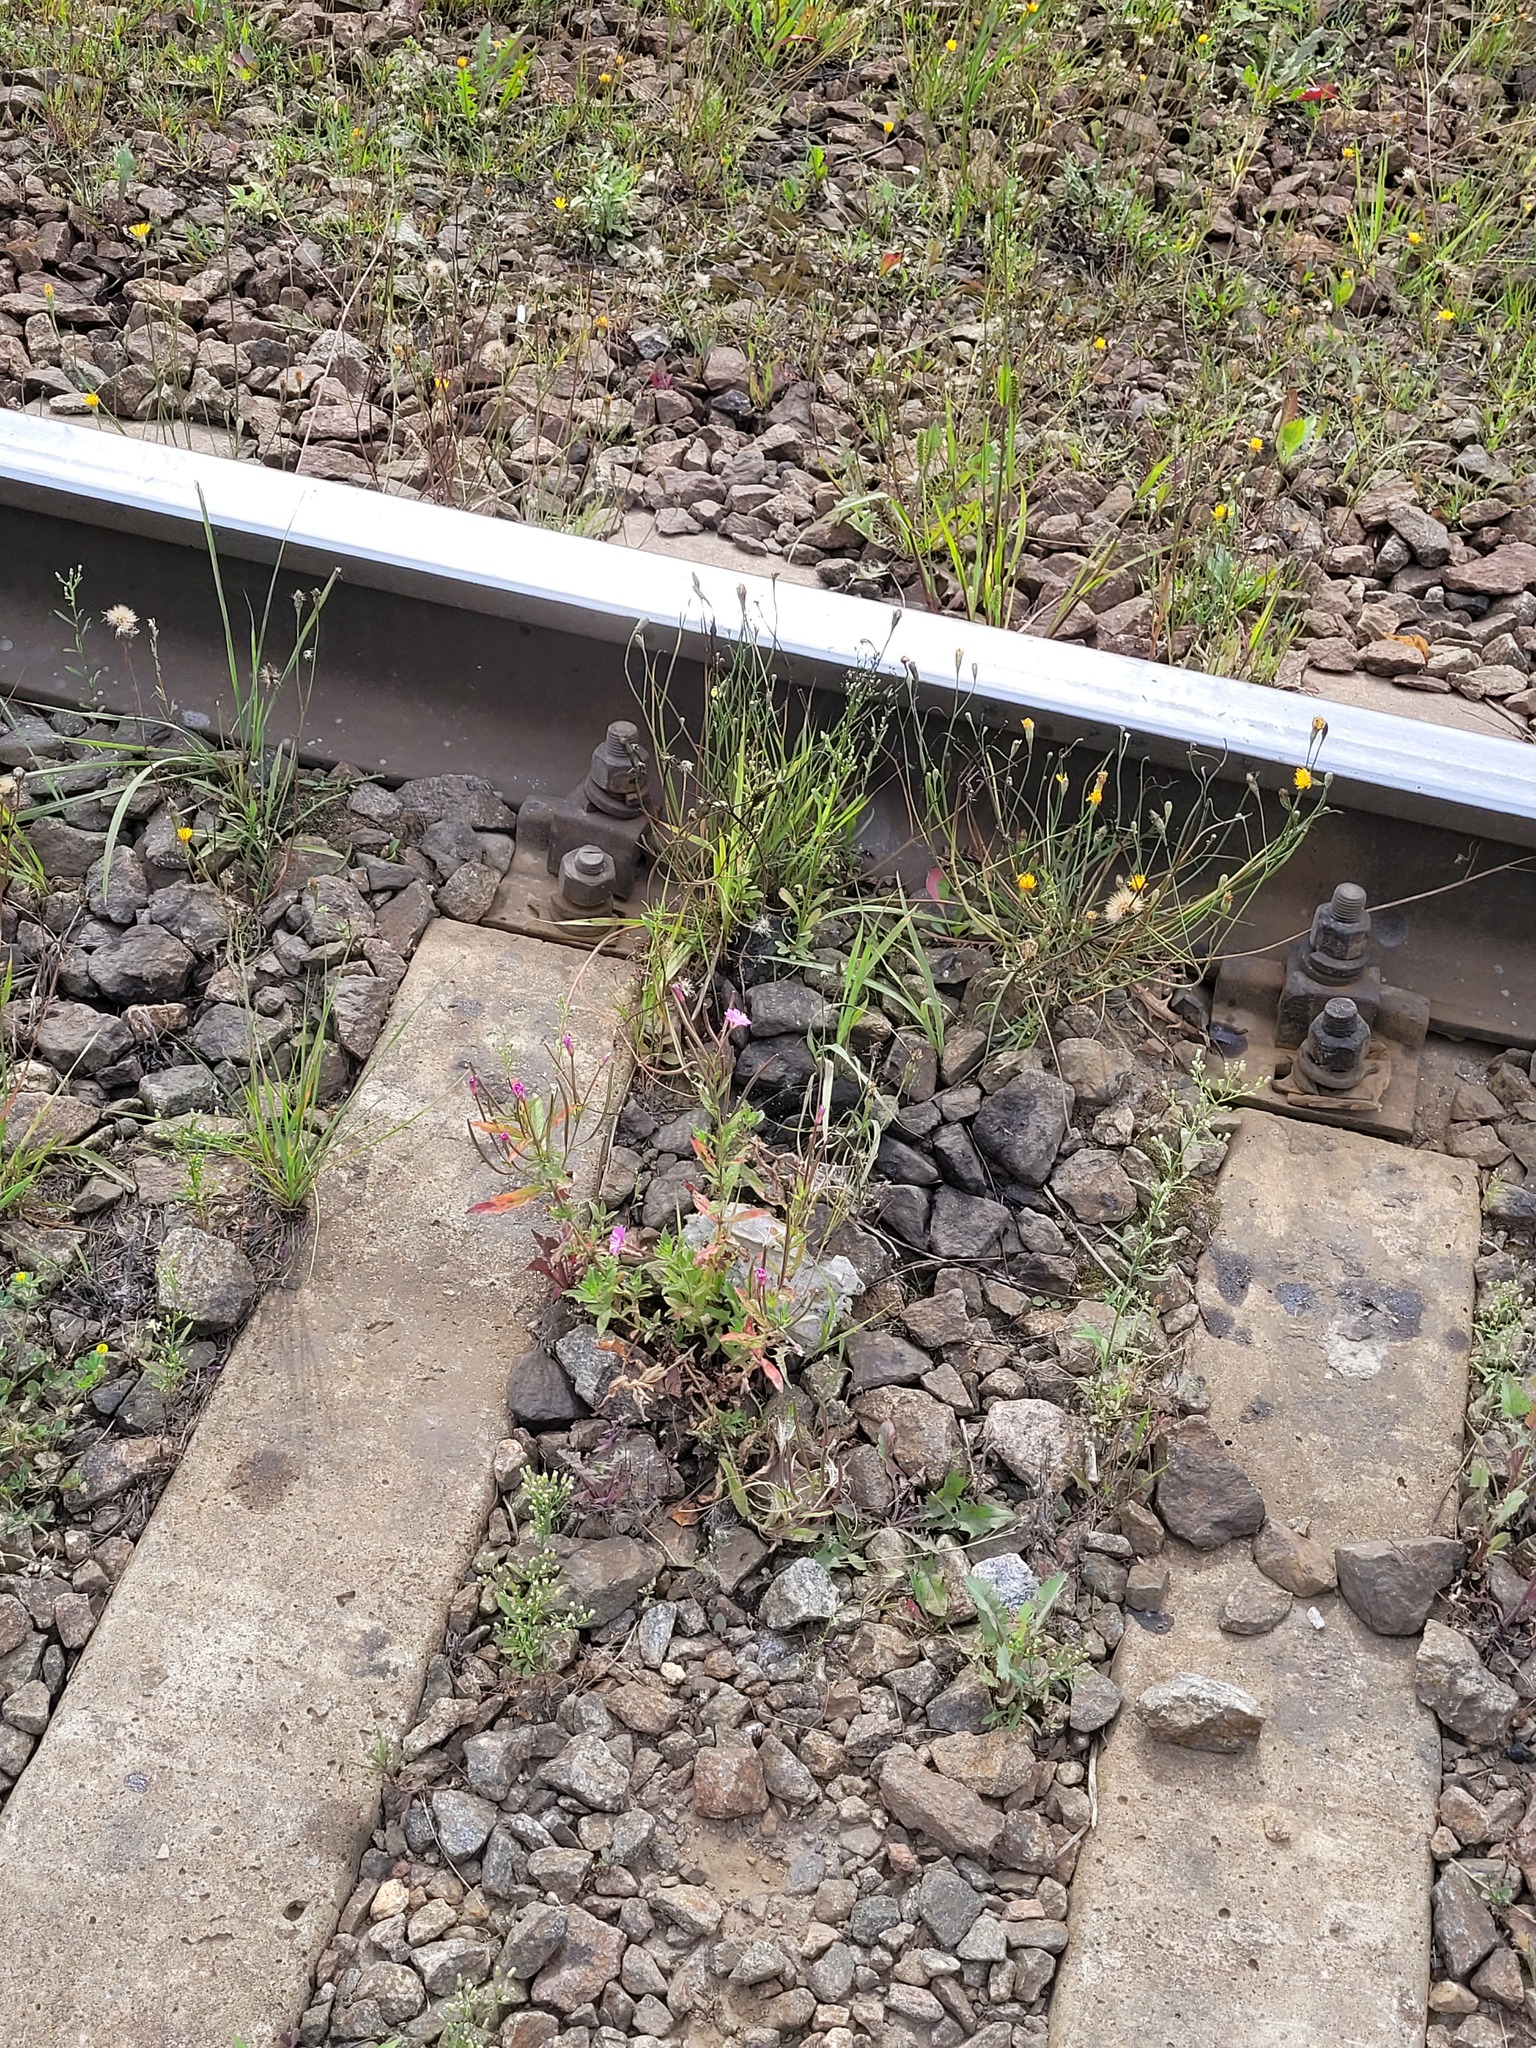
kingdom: Plantae
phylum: Tracheophyta
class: Magnoliopsida
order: Asterales
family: Asteraceae
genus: Scorzoneroides
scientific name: Scorzoneroides autumnalis
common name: Autumn hawkbit
